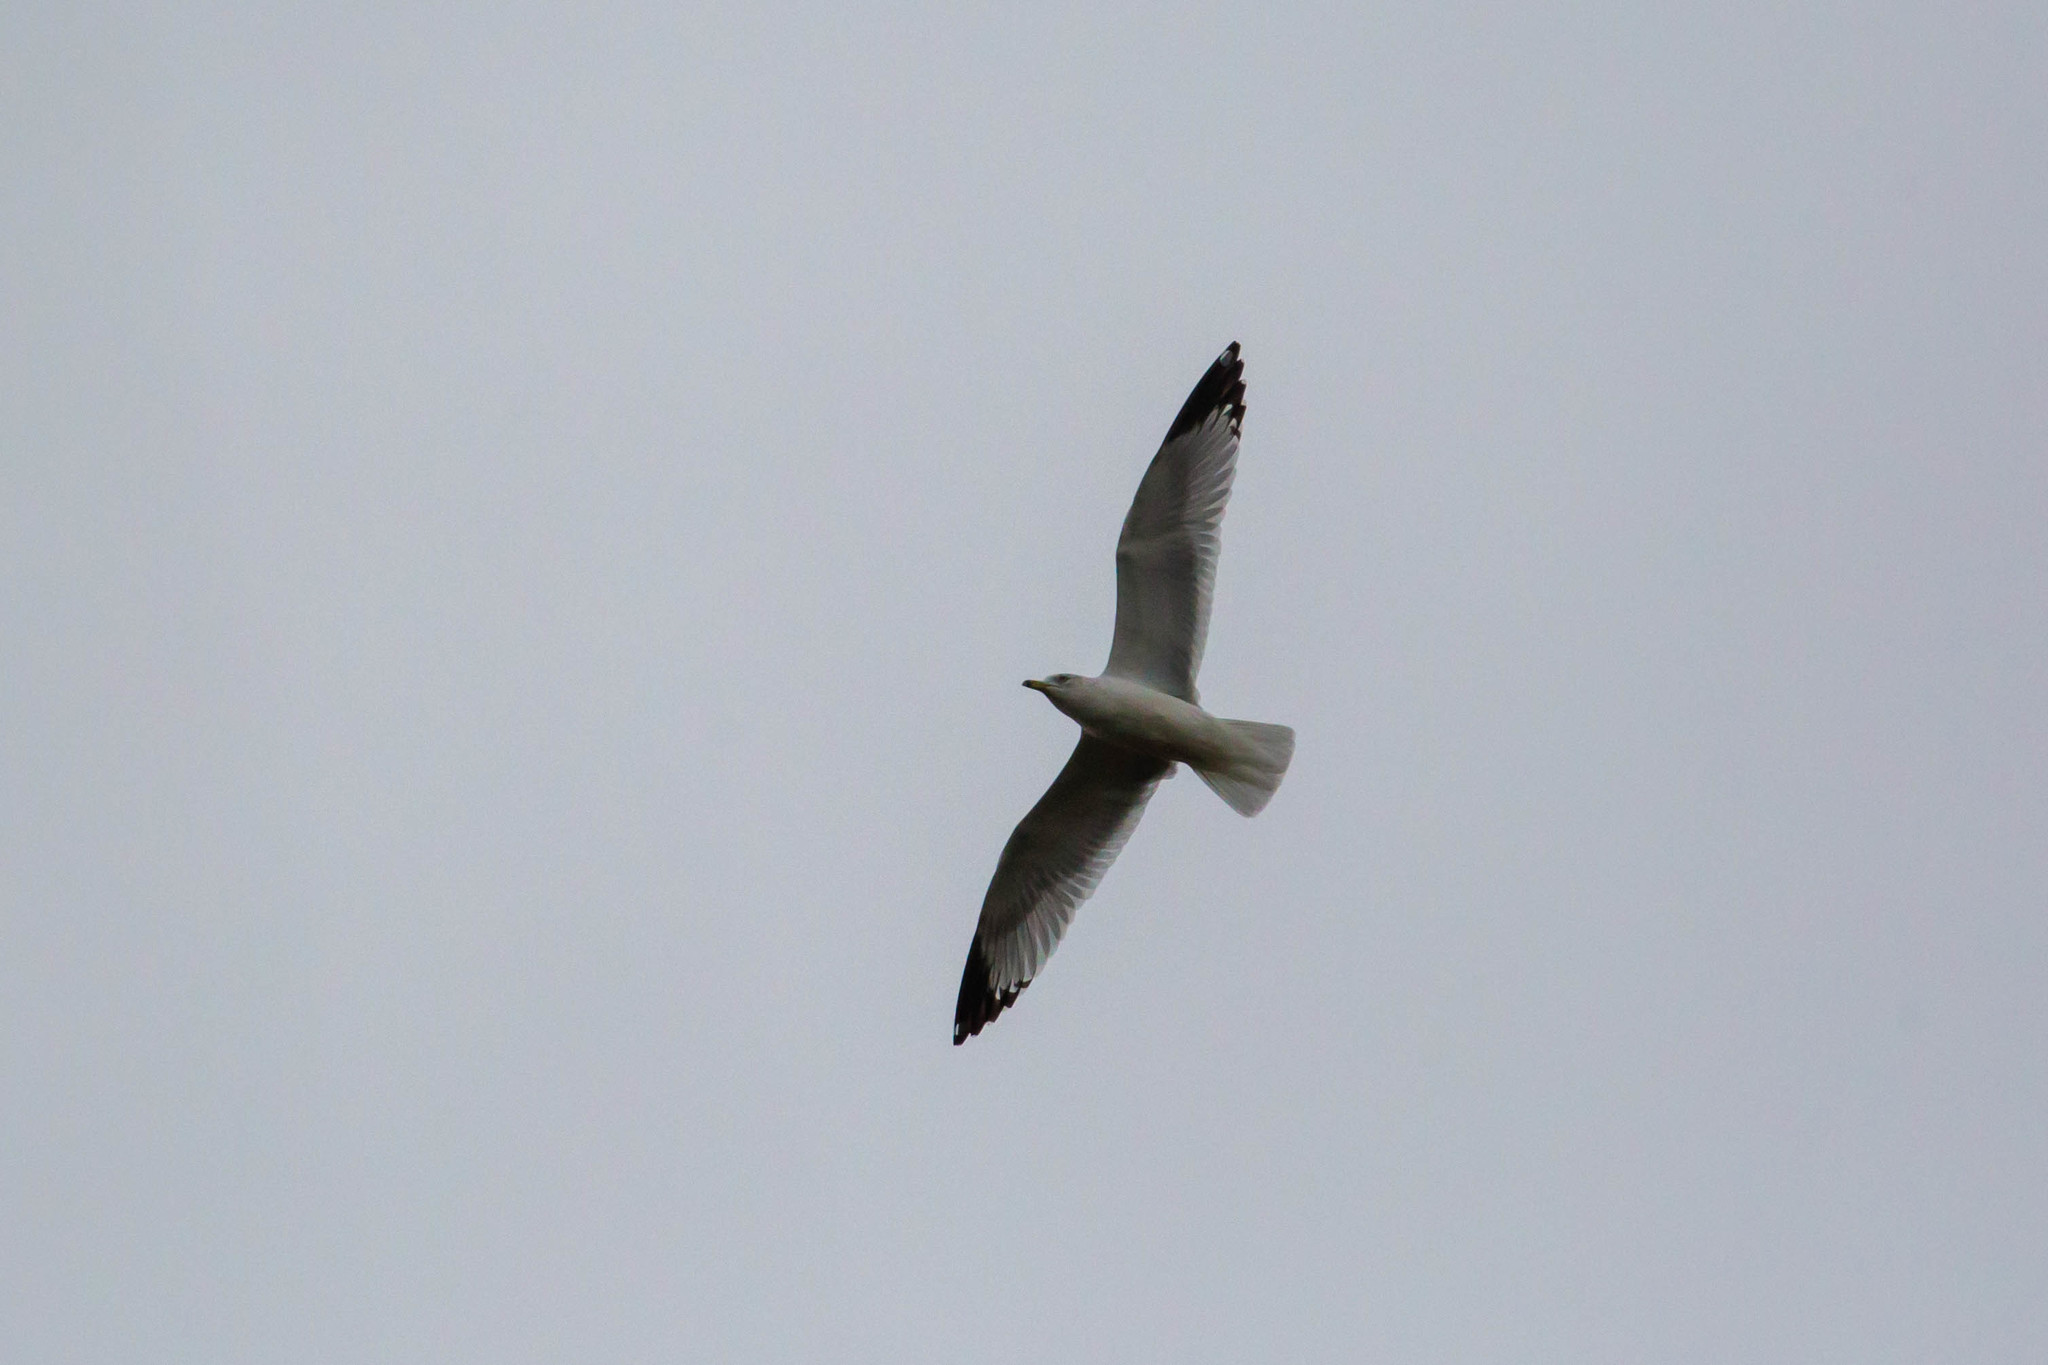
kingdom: Animalia
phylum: Chordata
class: Aves
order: Charadriiformes
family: Laridae
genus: Larus
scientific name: Larus delawarensis
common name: Ring-billed gull
